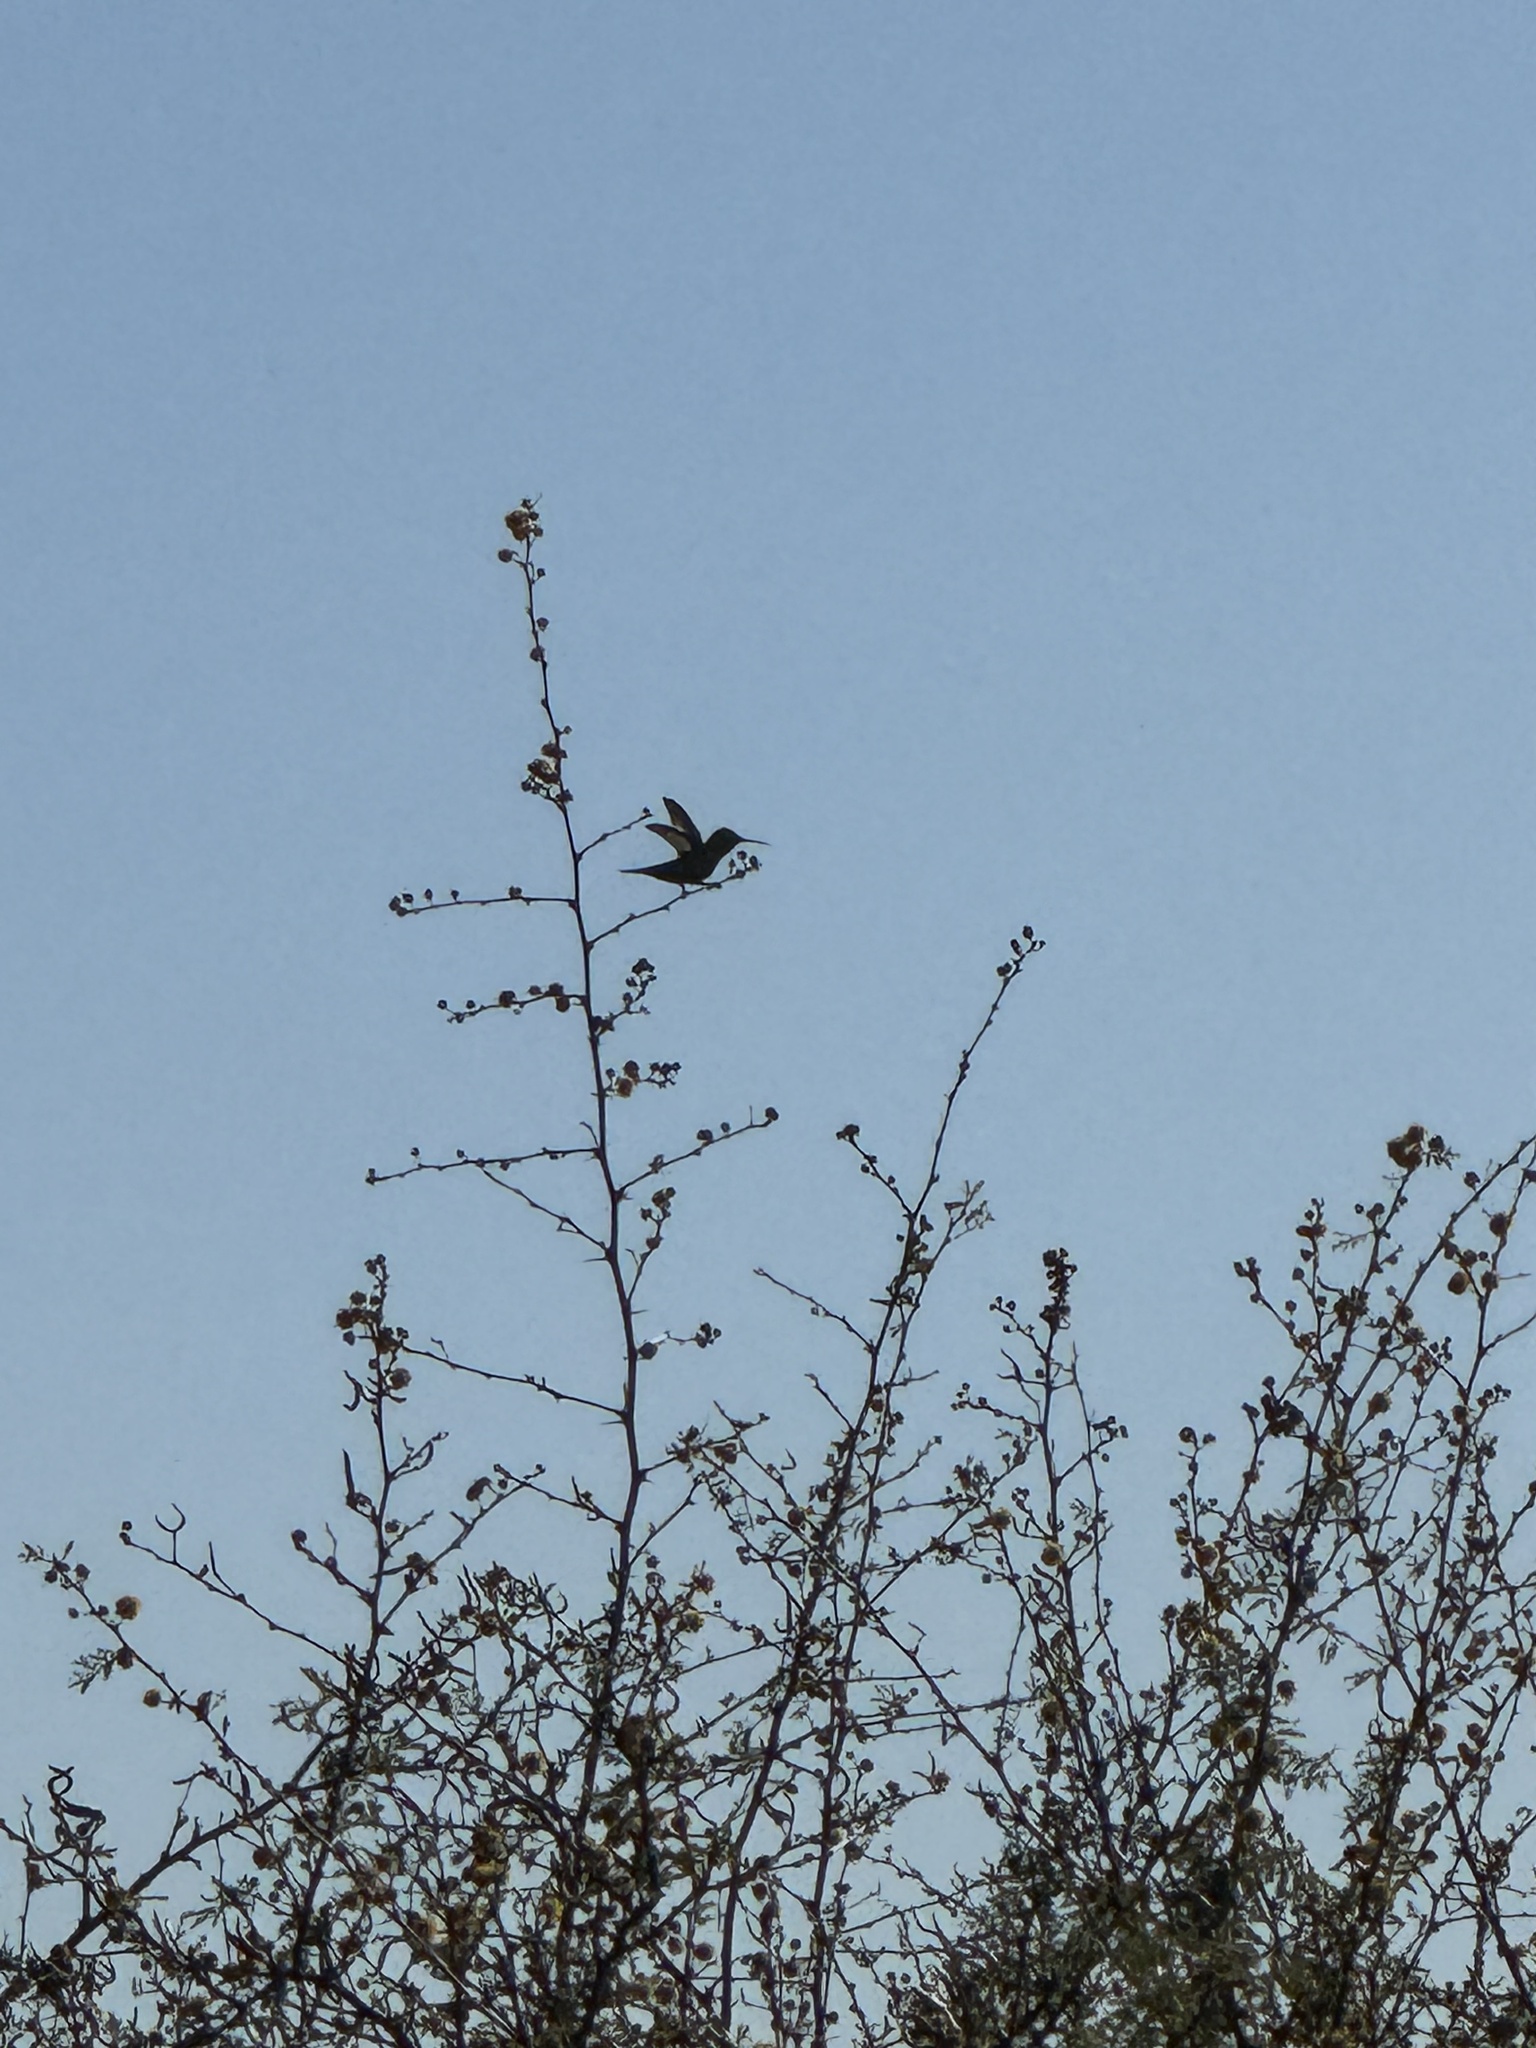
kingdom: Animalia
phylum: Chordata
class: Aves
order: Apodiformes
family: Trochilidae
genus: Calypte
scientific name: Calypte anna
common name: Anna's hummingbird
